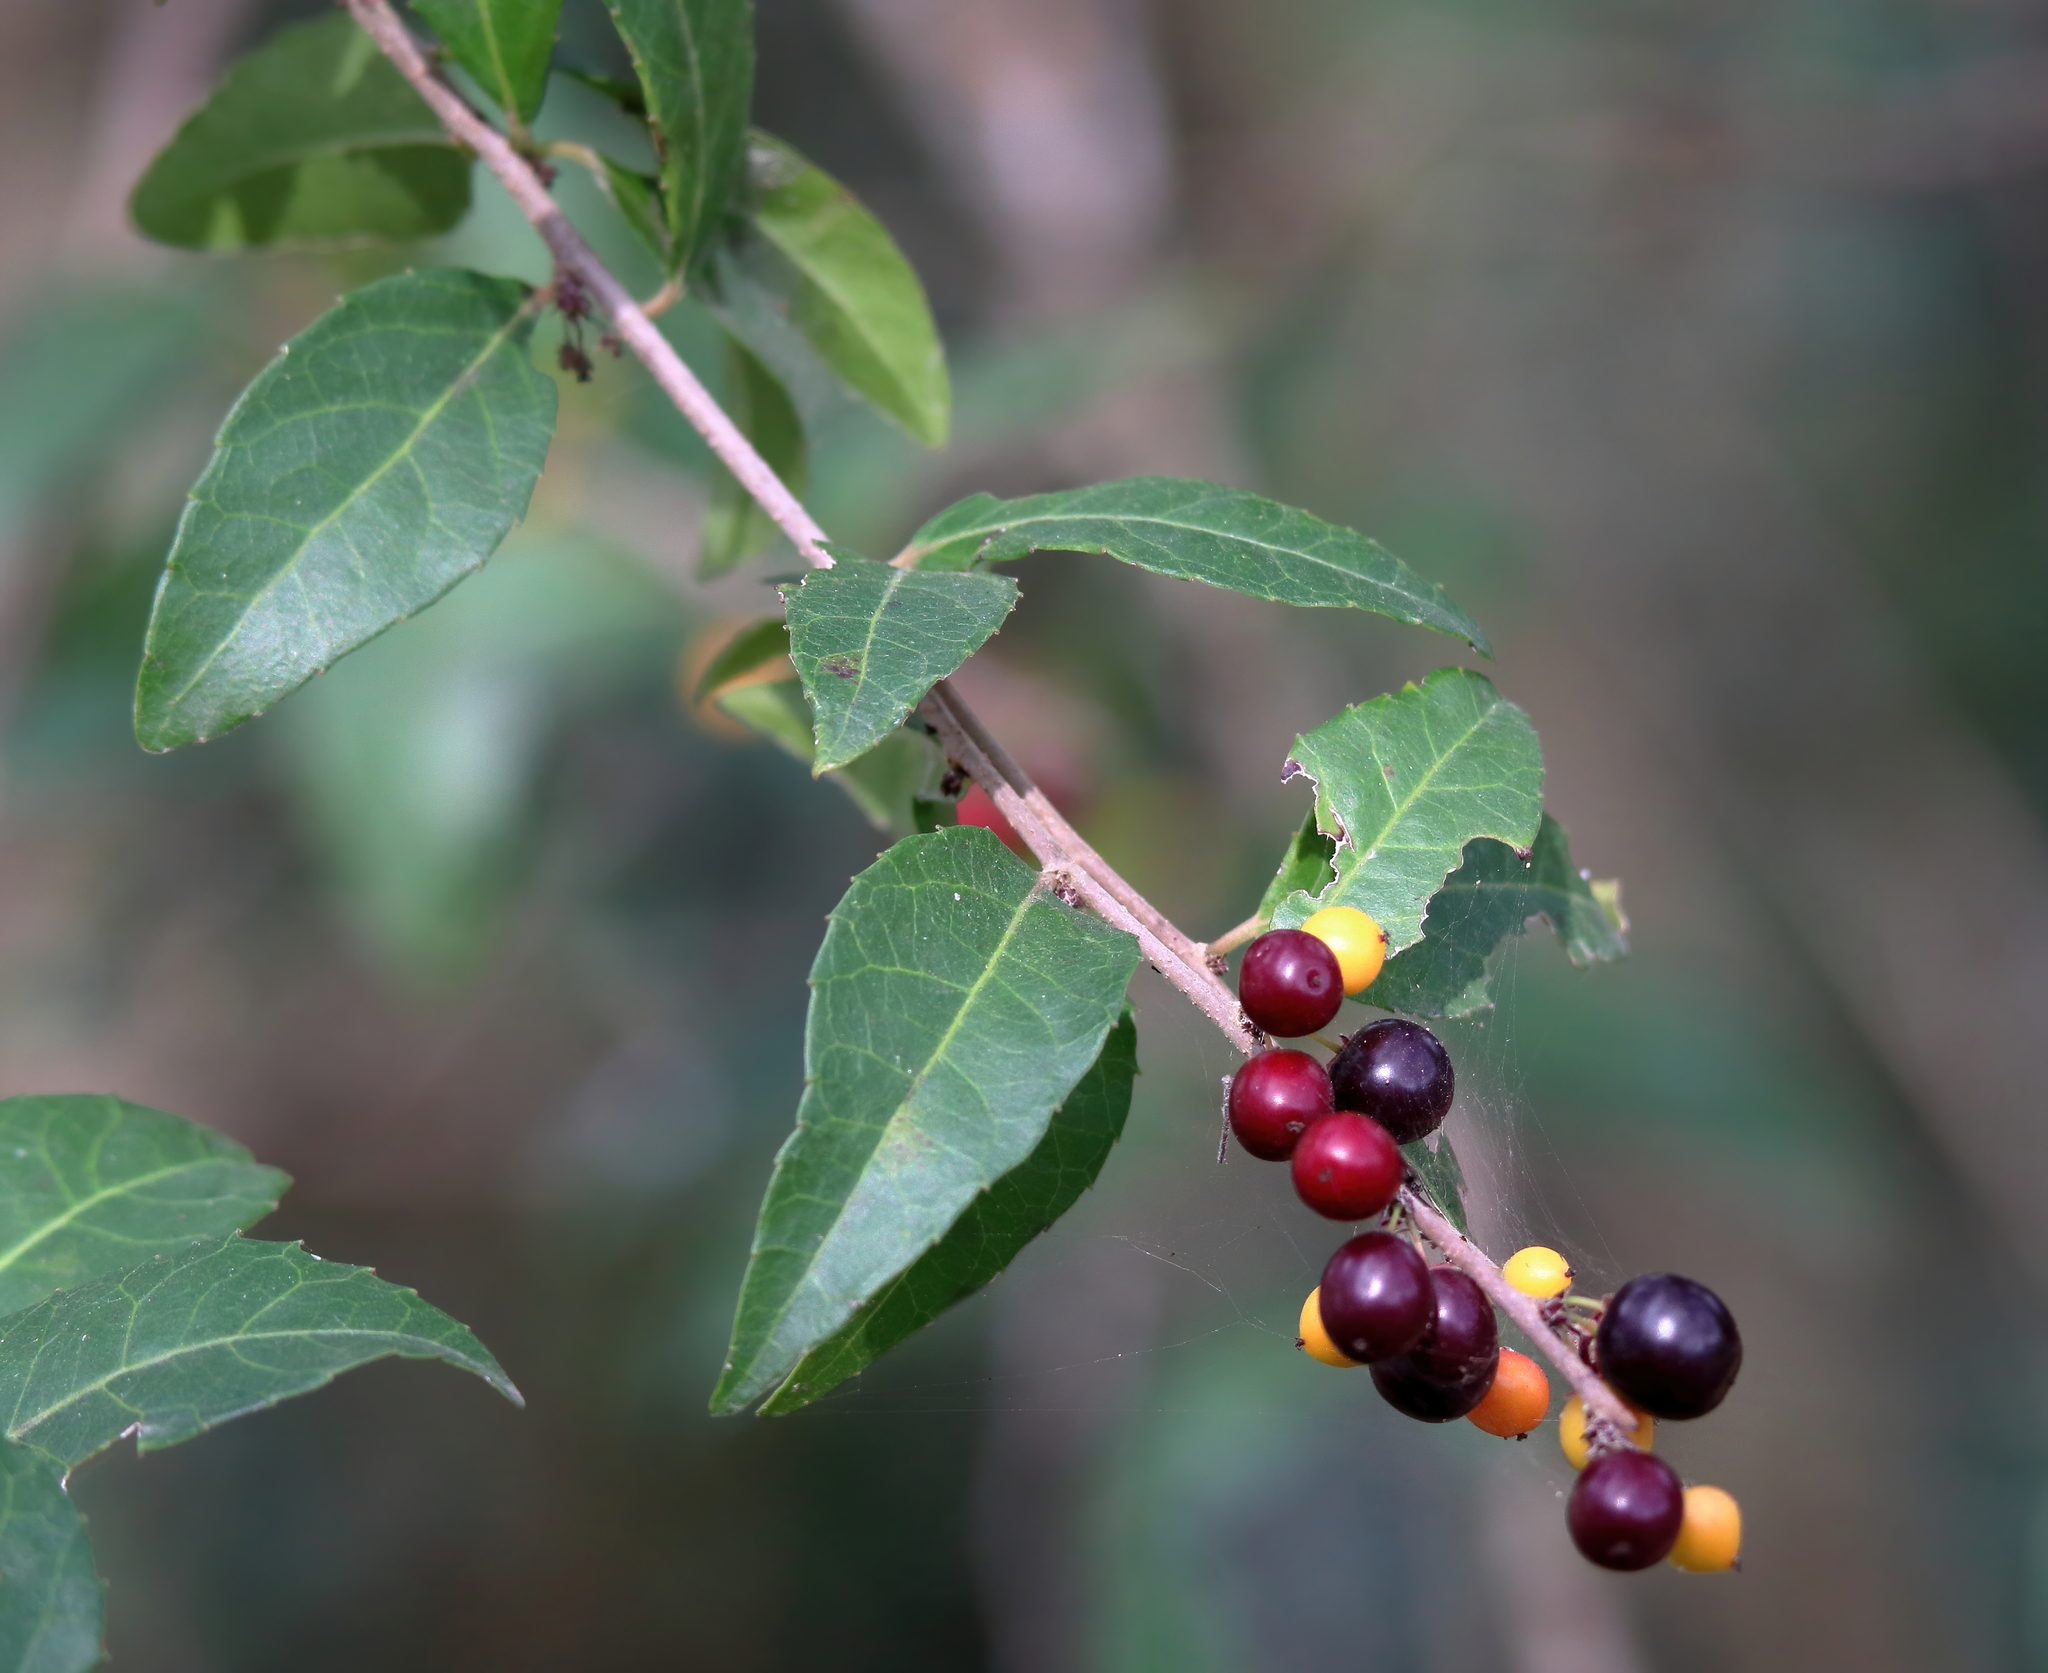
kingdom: Plantae
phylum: Tracheophyta
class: Magnoliopsida
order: Malpighiales
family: Salicaceae
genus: Xylosma
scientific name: Xylosma flexuosa
